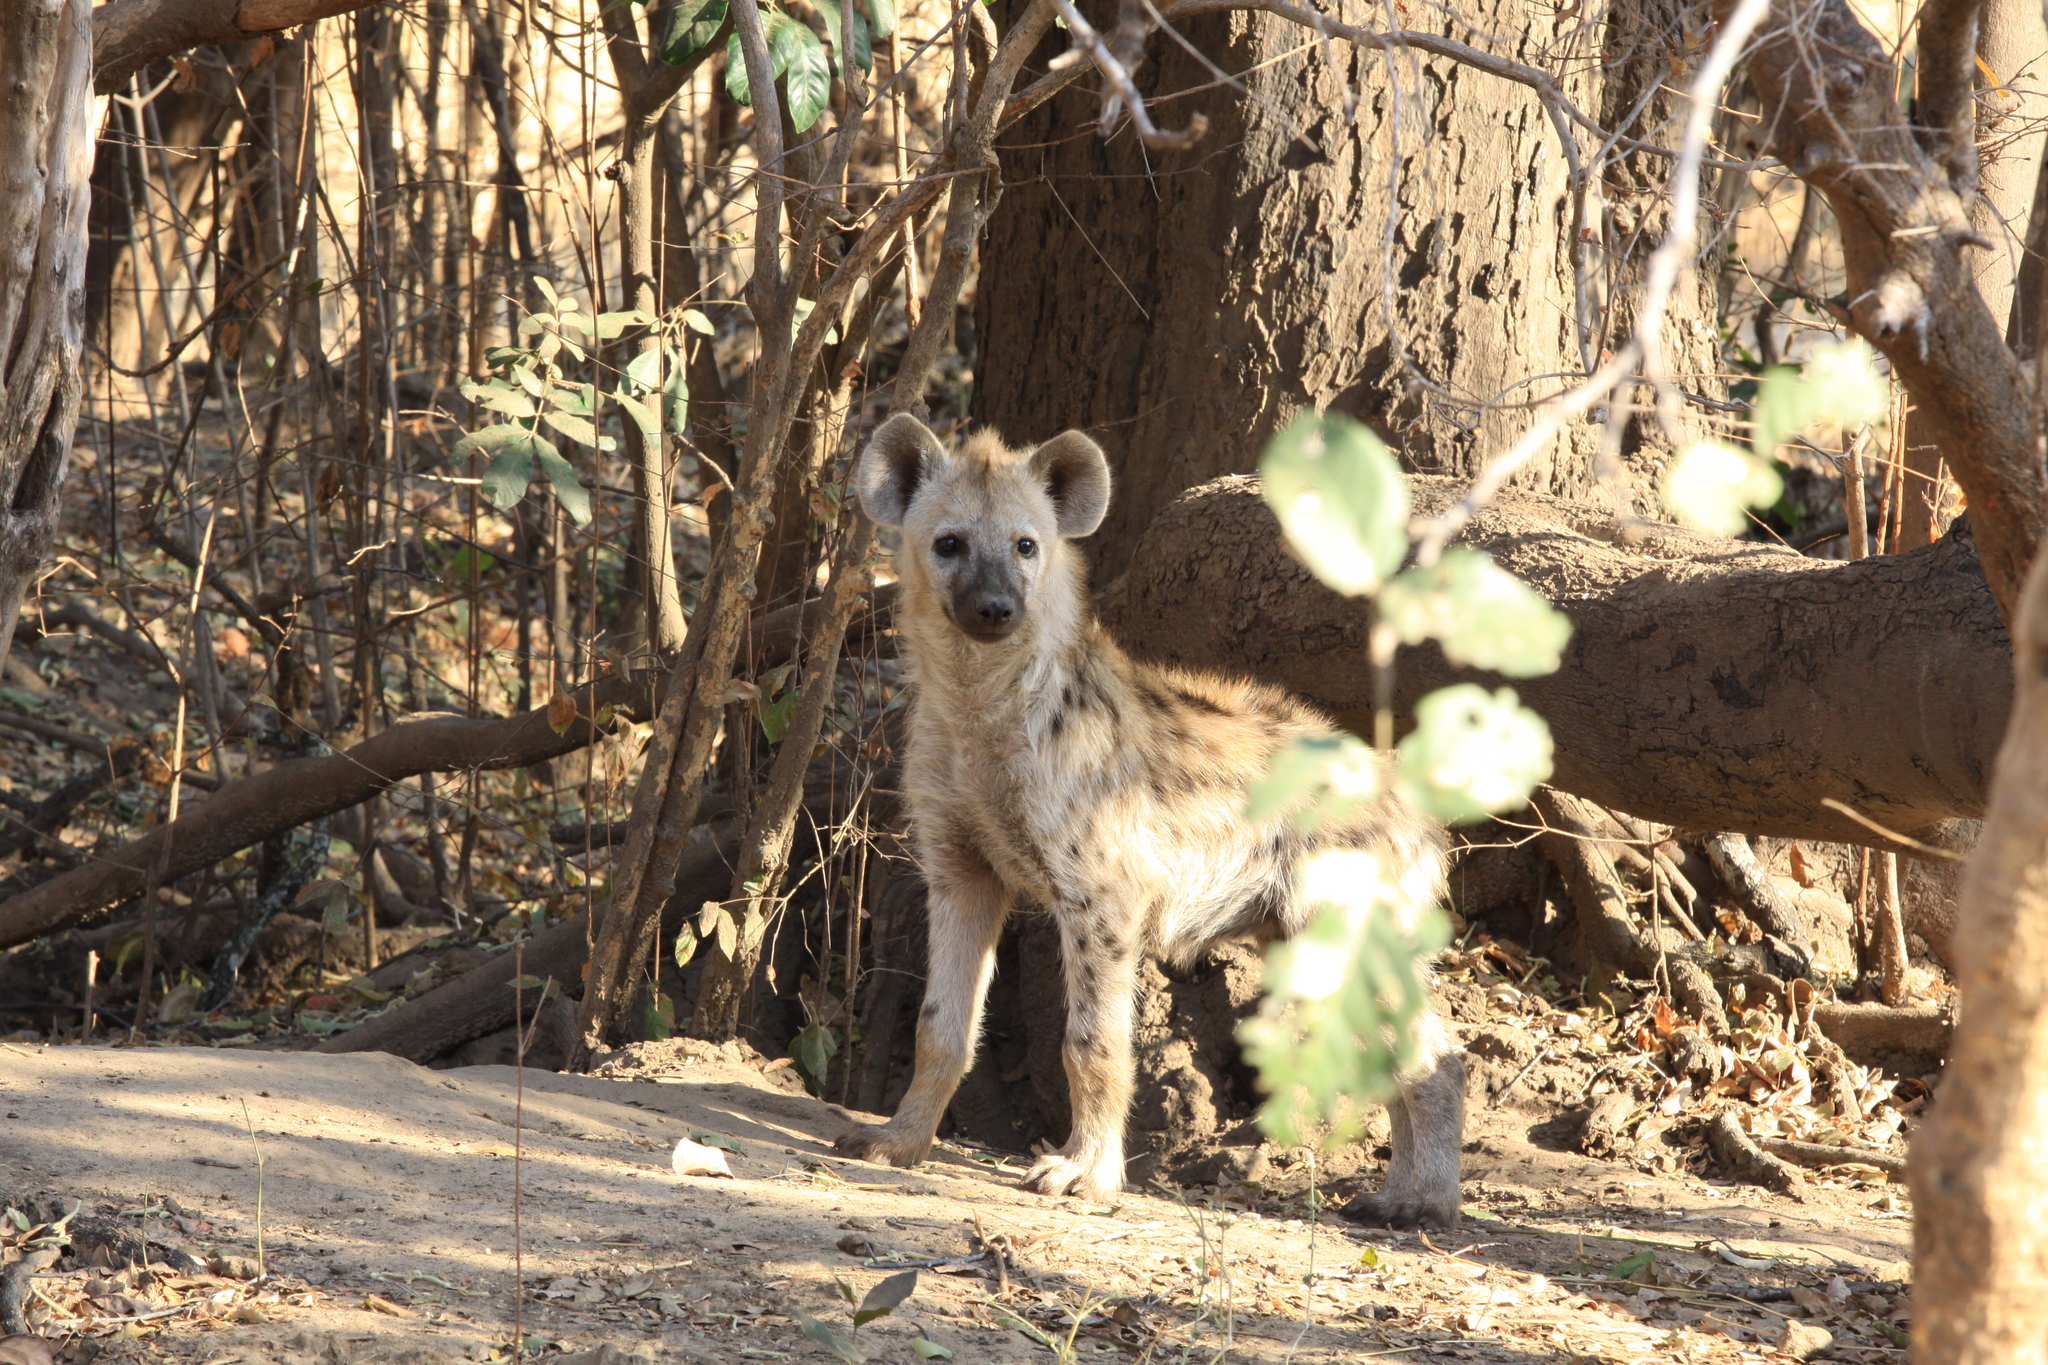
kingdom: Animalia
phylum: Chordata
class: Mammalia
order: Carnivora
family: Hyaenidae
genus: Crocuta
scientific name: Crocuta crocuta
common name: Spotted hyaena
